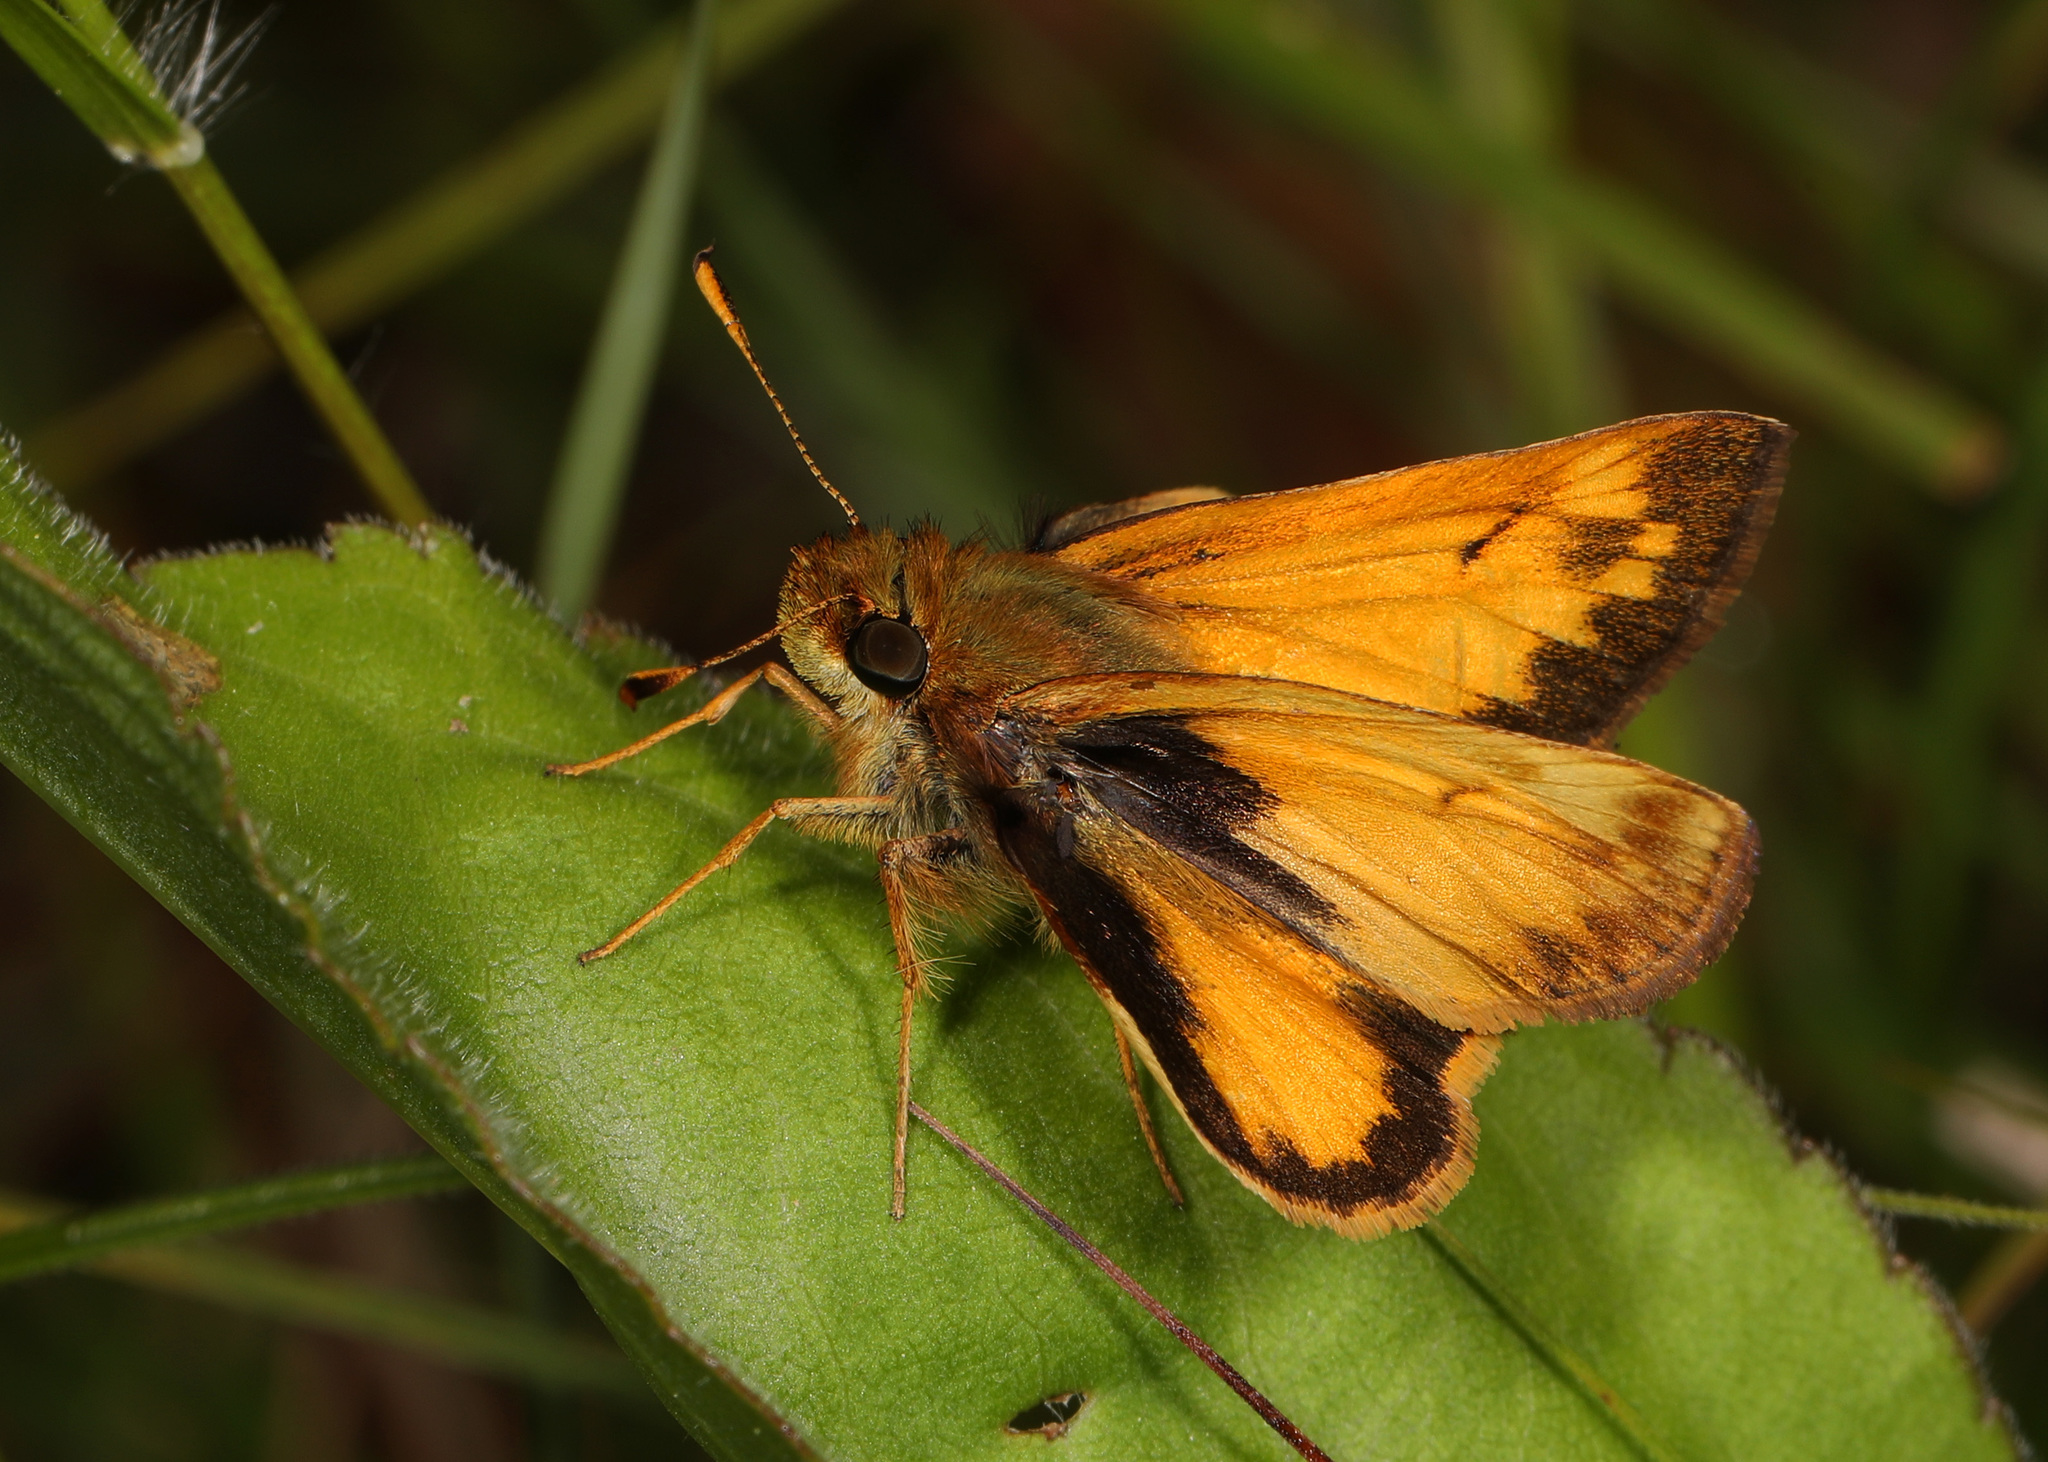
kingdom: Animalia
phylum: Arthropoda
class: Insecta
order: Lepidoptera
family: Hesperiidae
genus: Lon
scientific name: Lon zabulon
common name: Zabulon skipper
